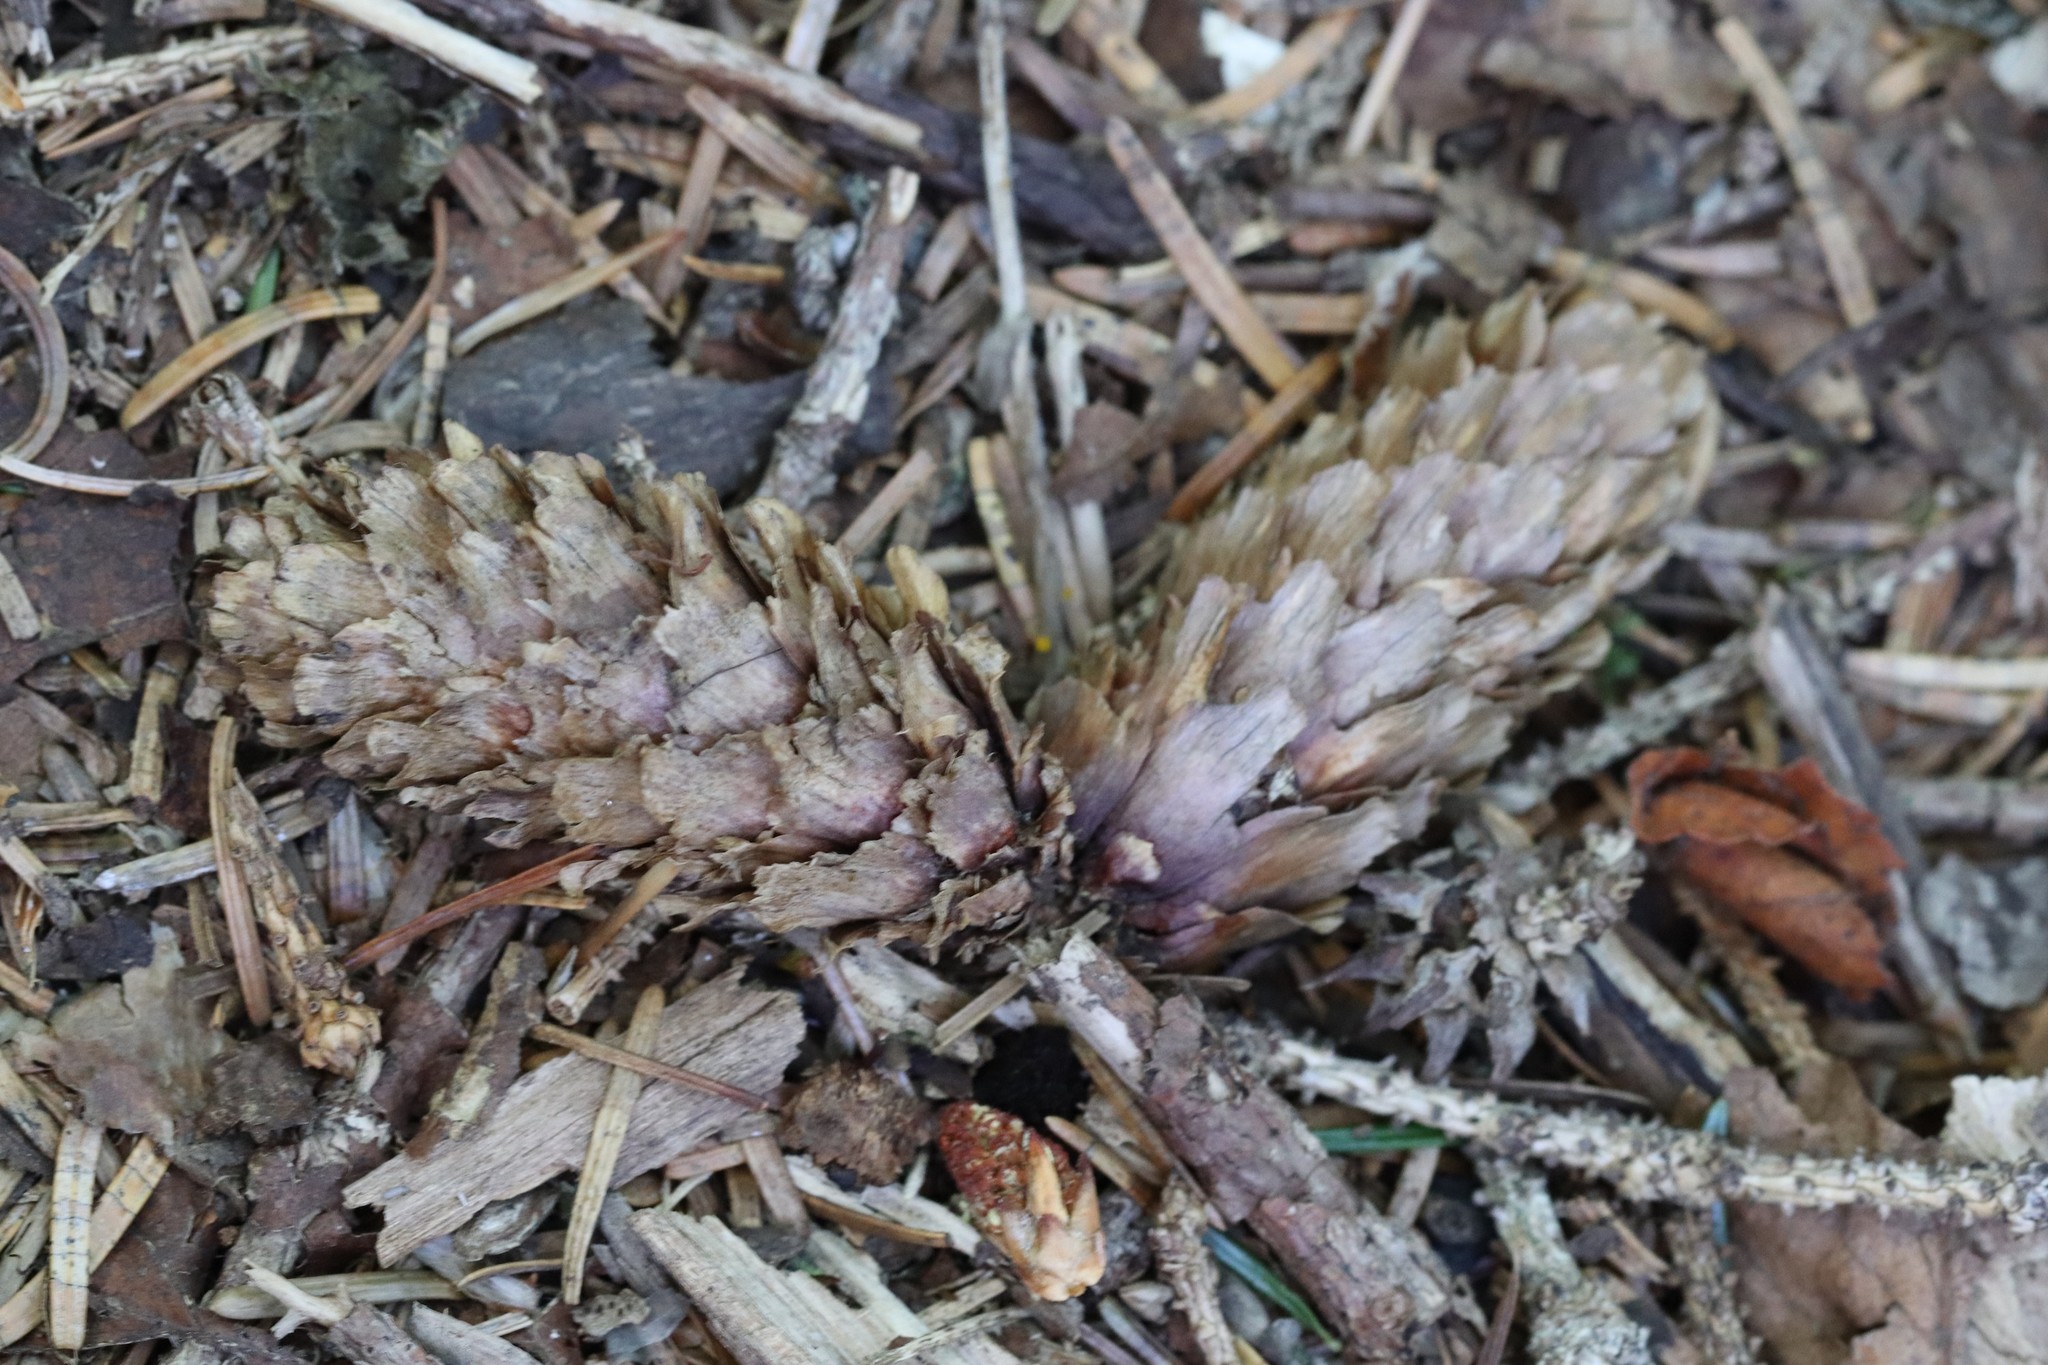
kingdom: Plantae
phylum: Tracheophyta
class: Pinopsida
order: Pinales
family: Pinaceae
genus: Picea
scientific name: Picea jezoensis
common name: Yeddo spruce
